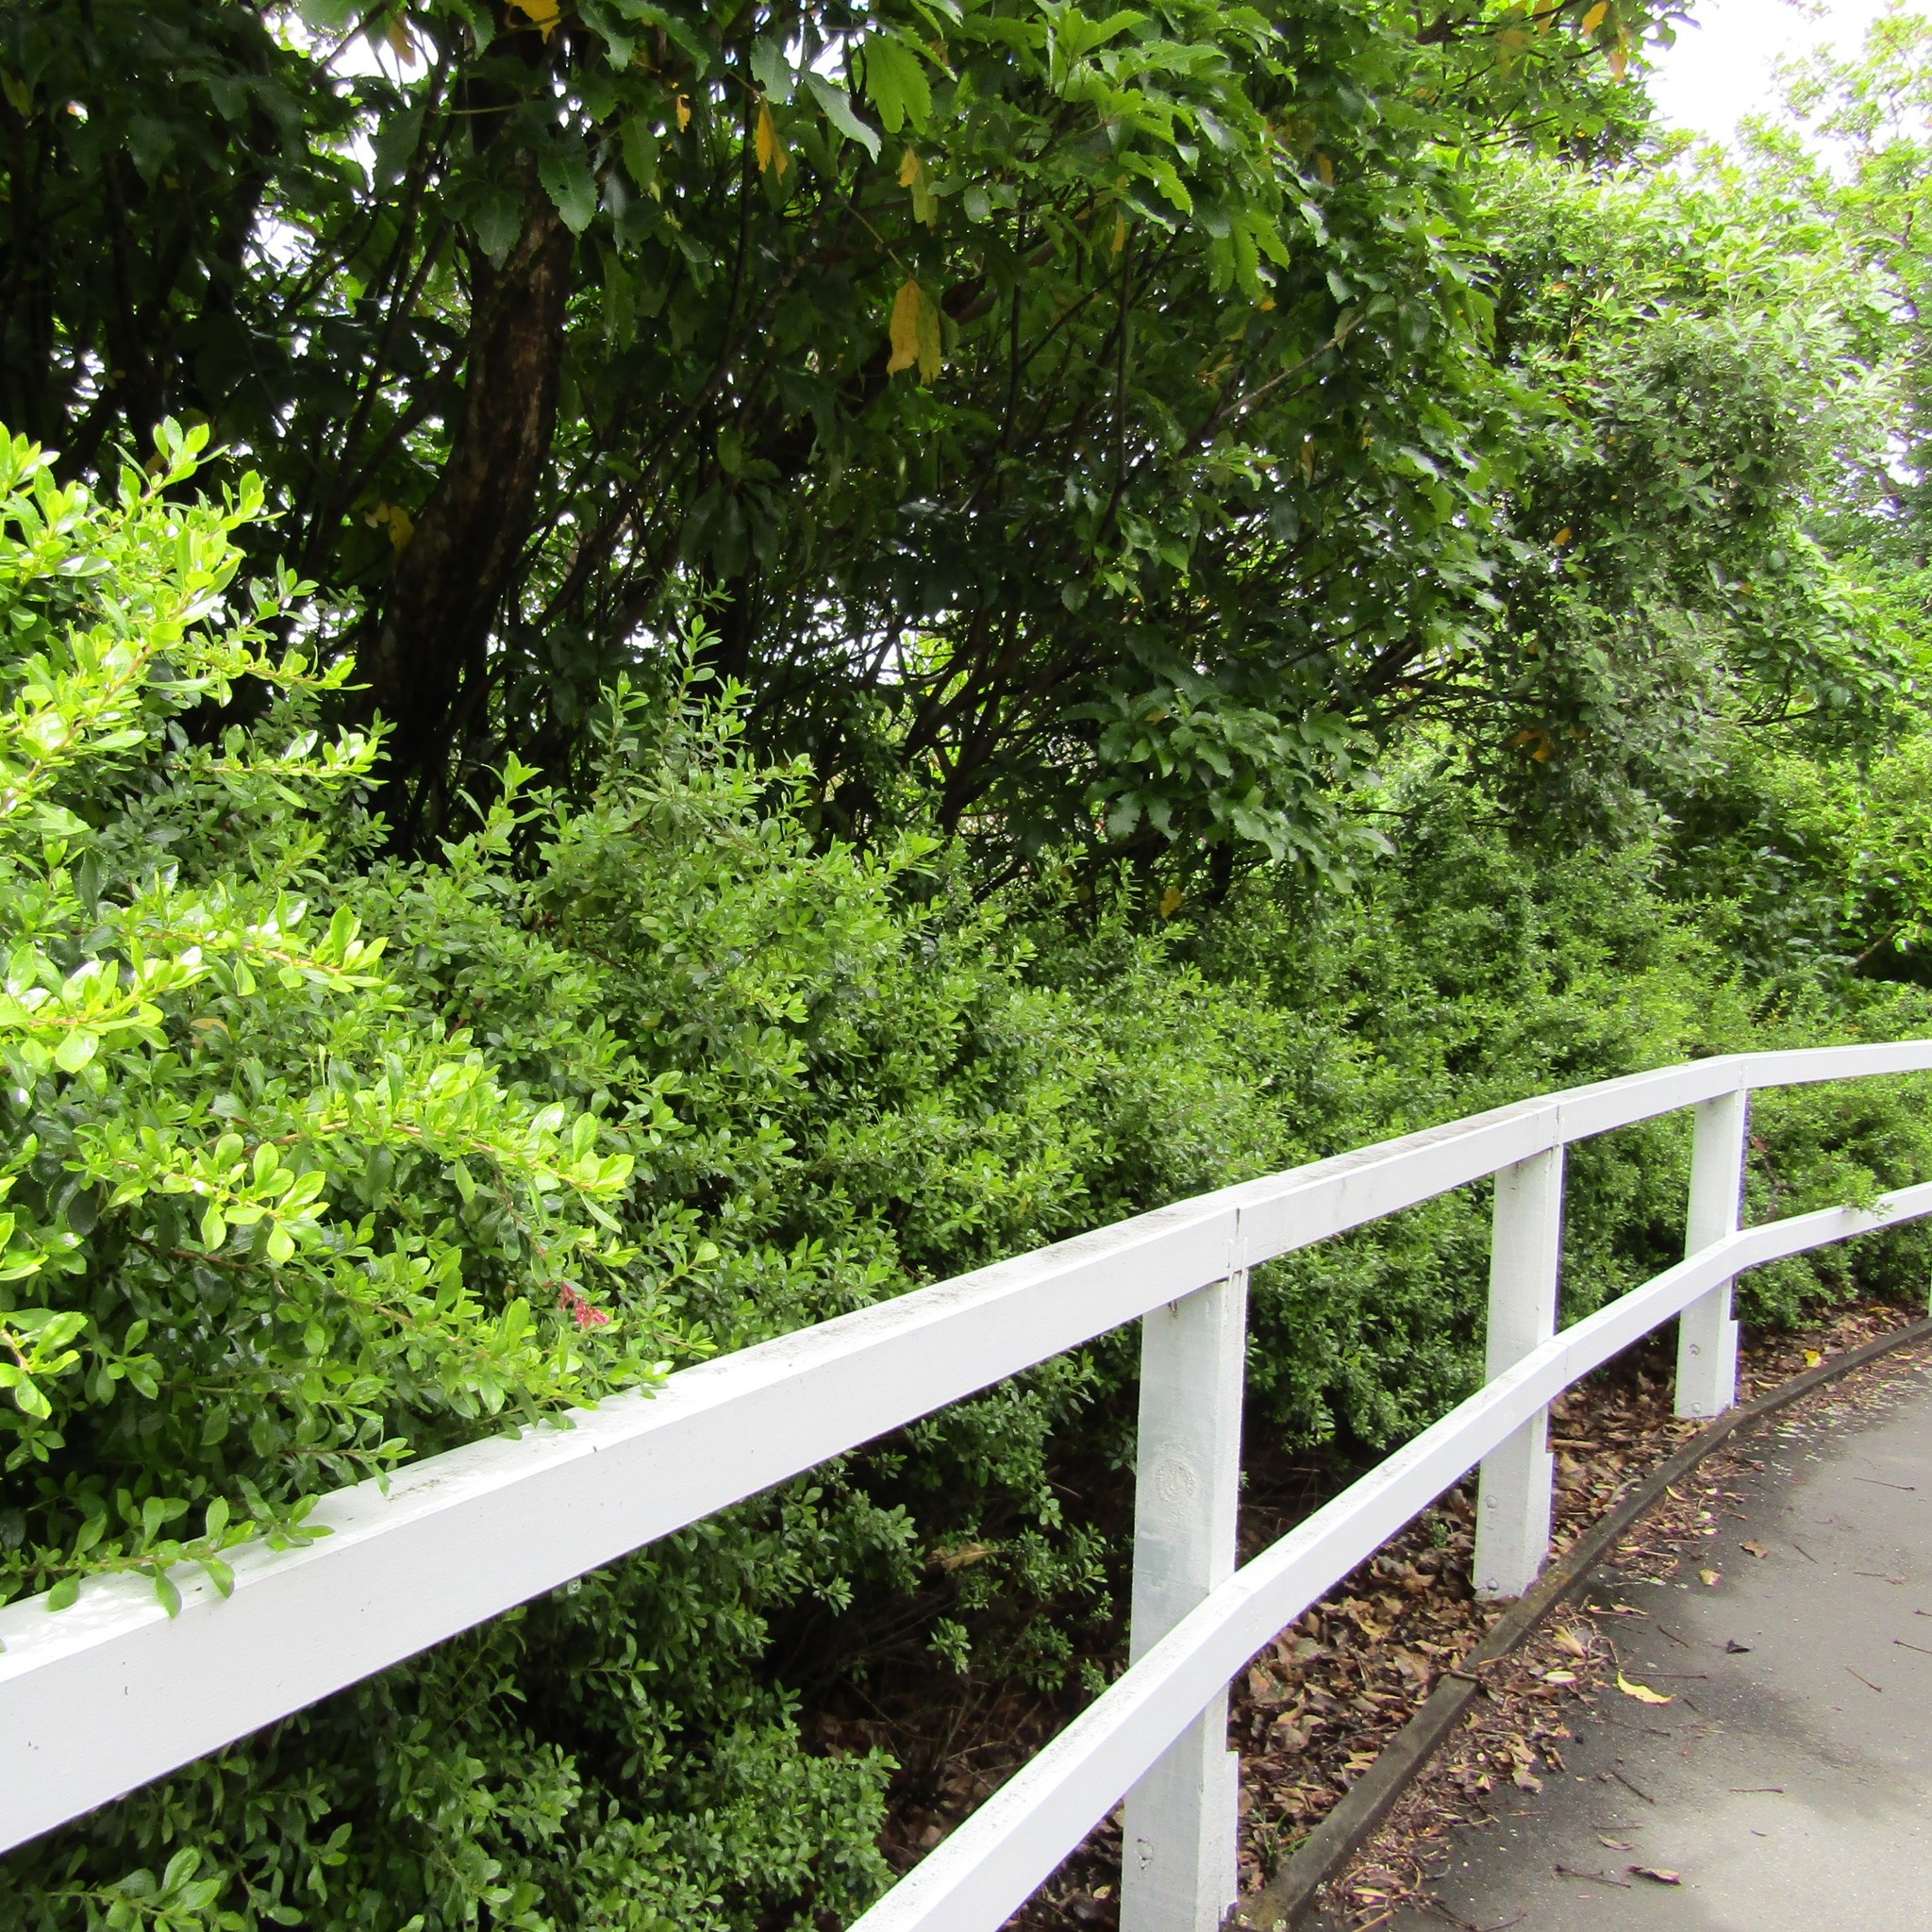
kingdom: Plantae
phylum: Tracheophyta
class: Magnoliopsida
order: Escalloniales
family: Escalloniaceae
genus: Escallonia
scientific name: Escallonia rubra
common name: Redclaws
